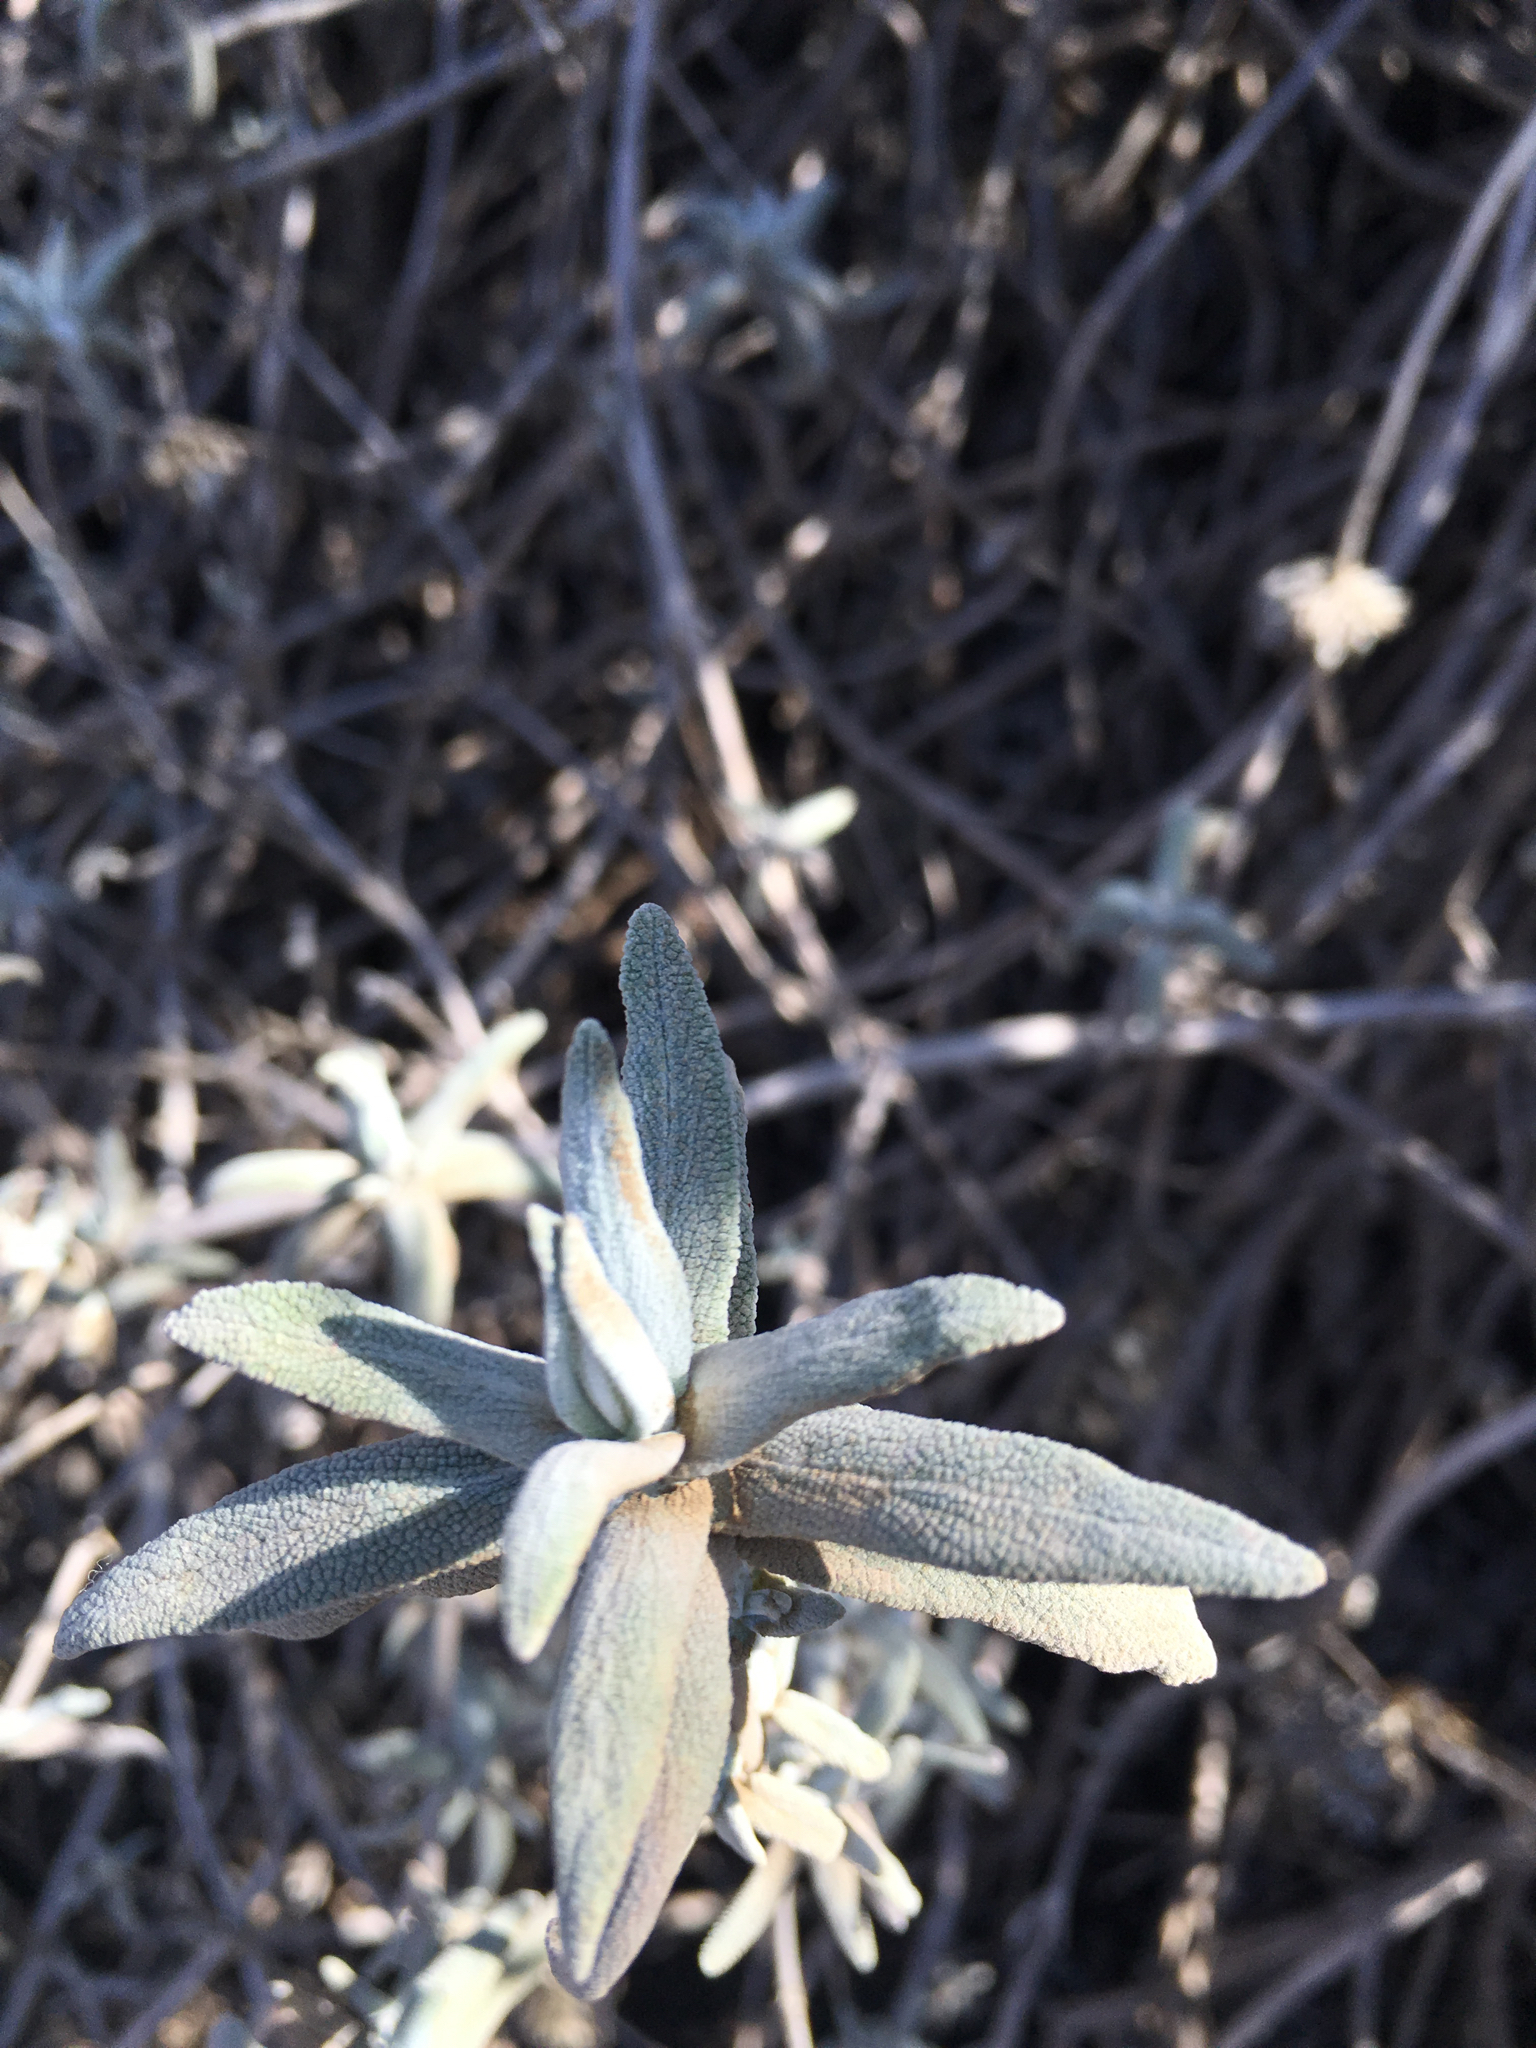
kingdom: Plantae
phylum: Tracheophyta
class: Magnoliopsida
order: Lamiales
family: Lamiaceae
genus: Salvia
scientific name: Salvia leucophylla
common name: Purple sage
